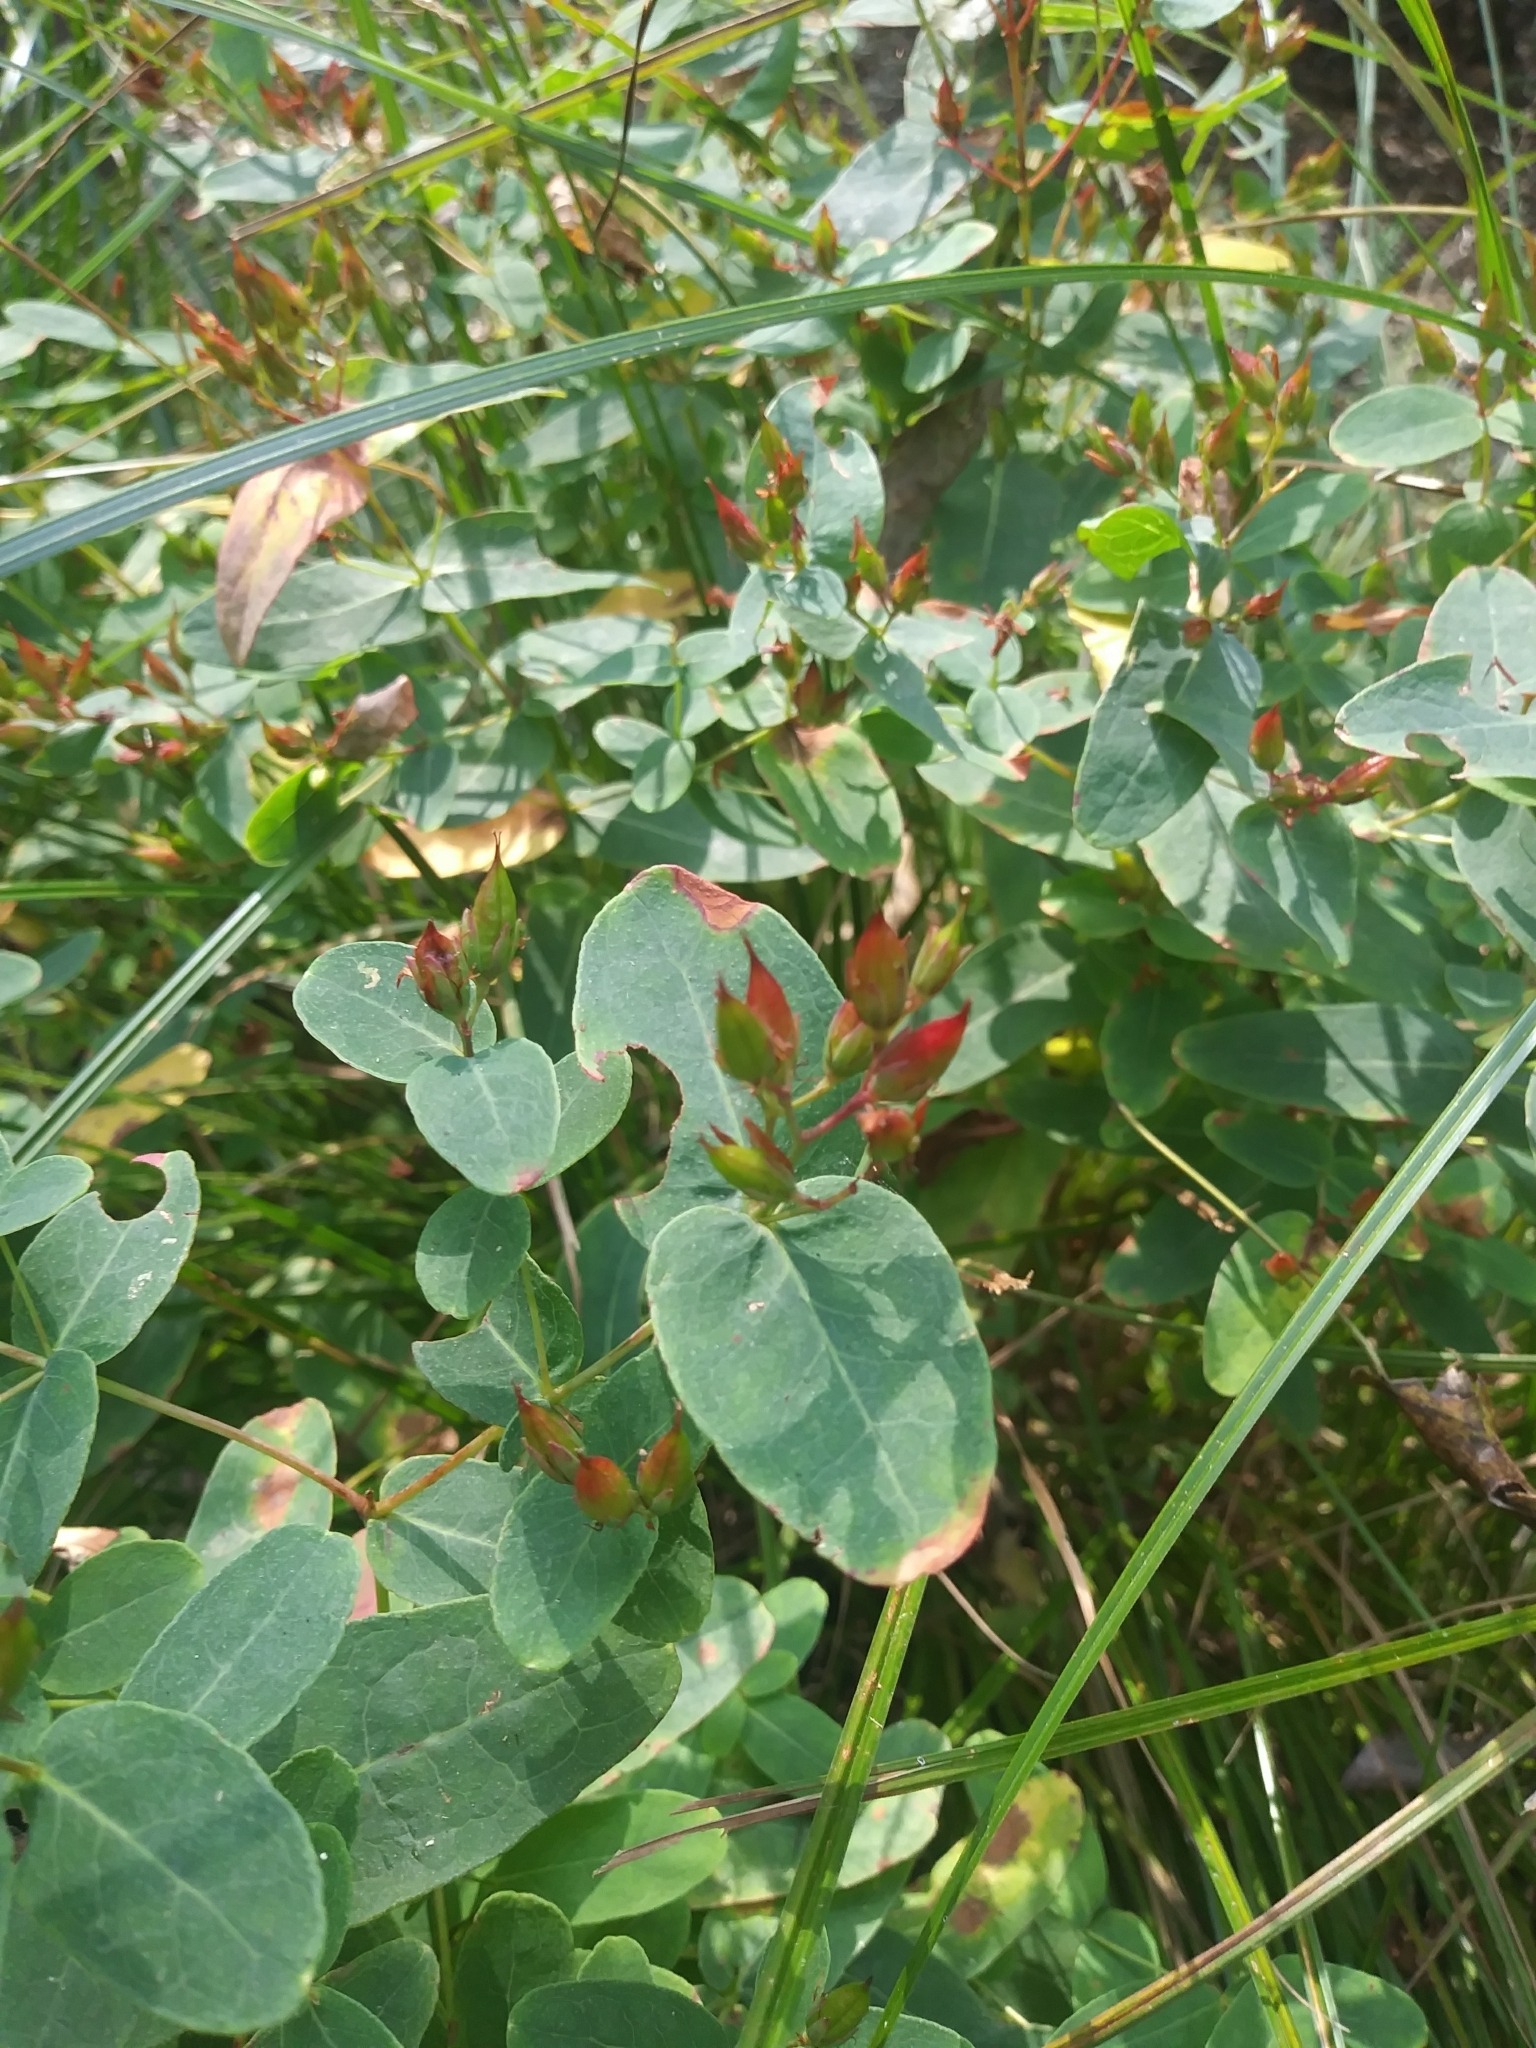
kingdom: Plantae
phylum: Tracheophyta
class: Magnoliopsida
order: Malpighiales
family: Hypericaceae
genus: Triadenum
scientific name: Triadenum virginicum
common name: Marsh st. john's-wort
